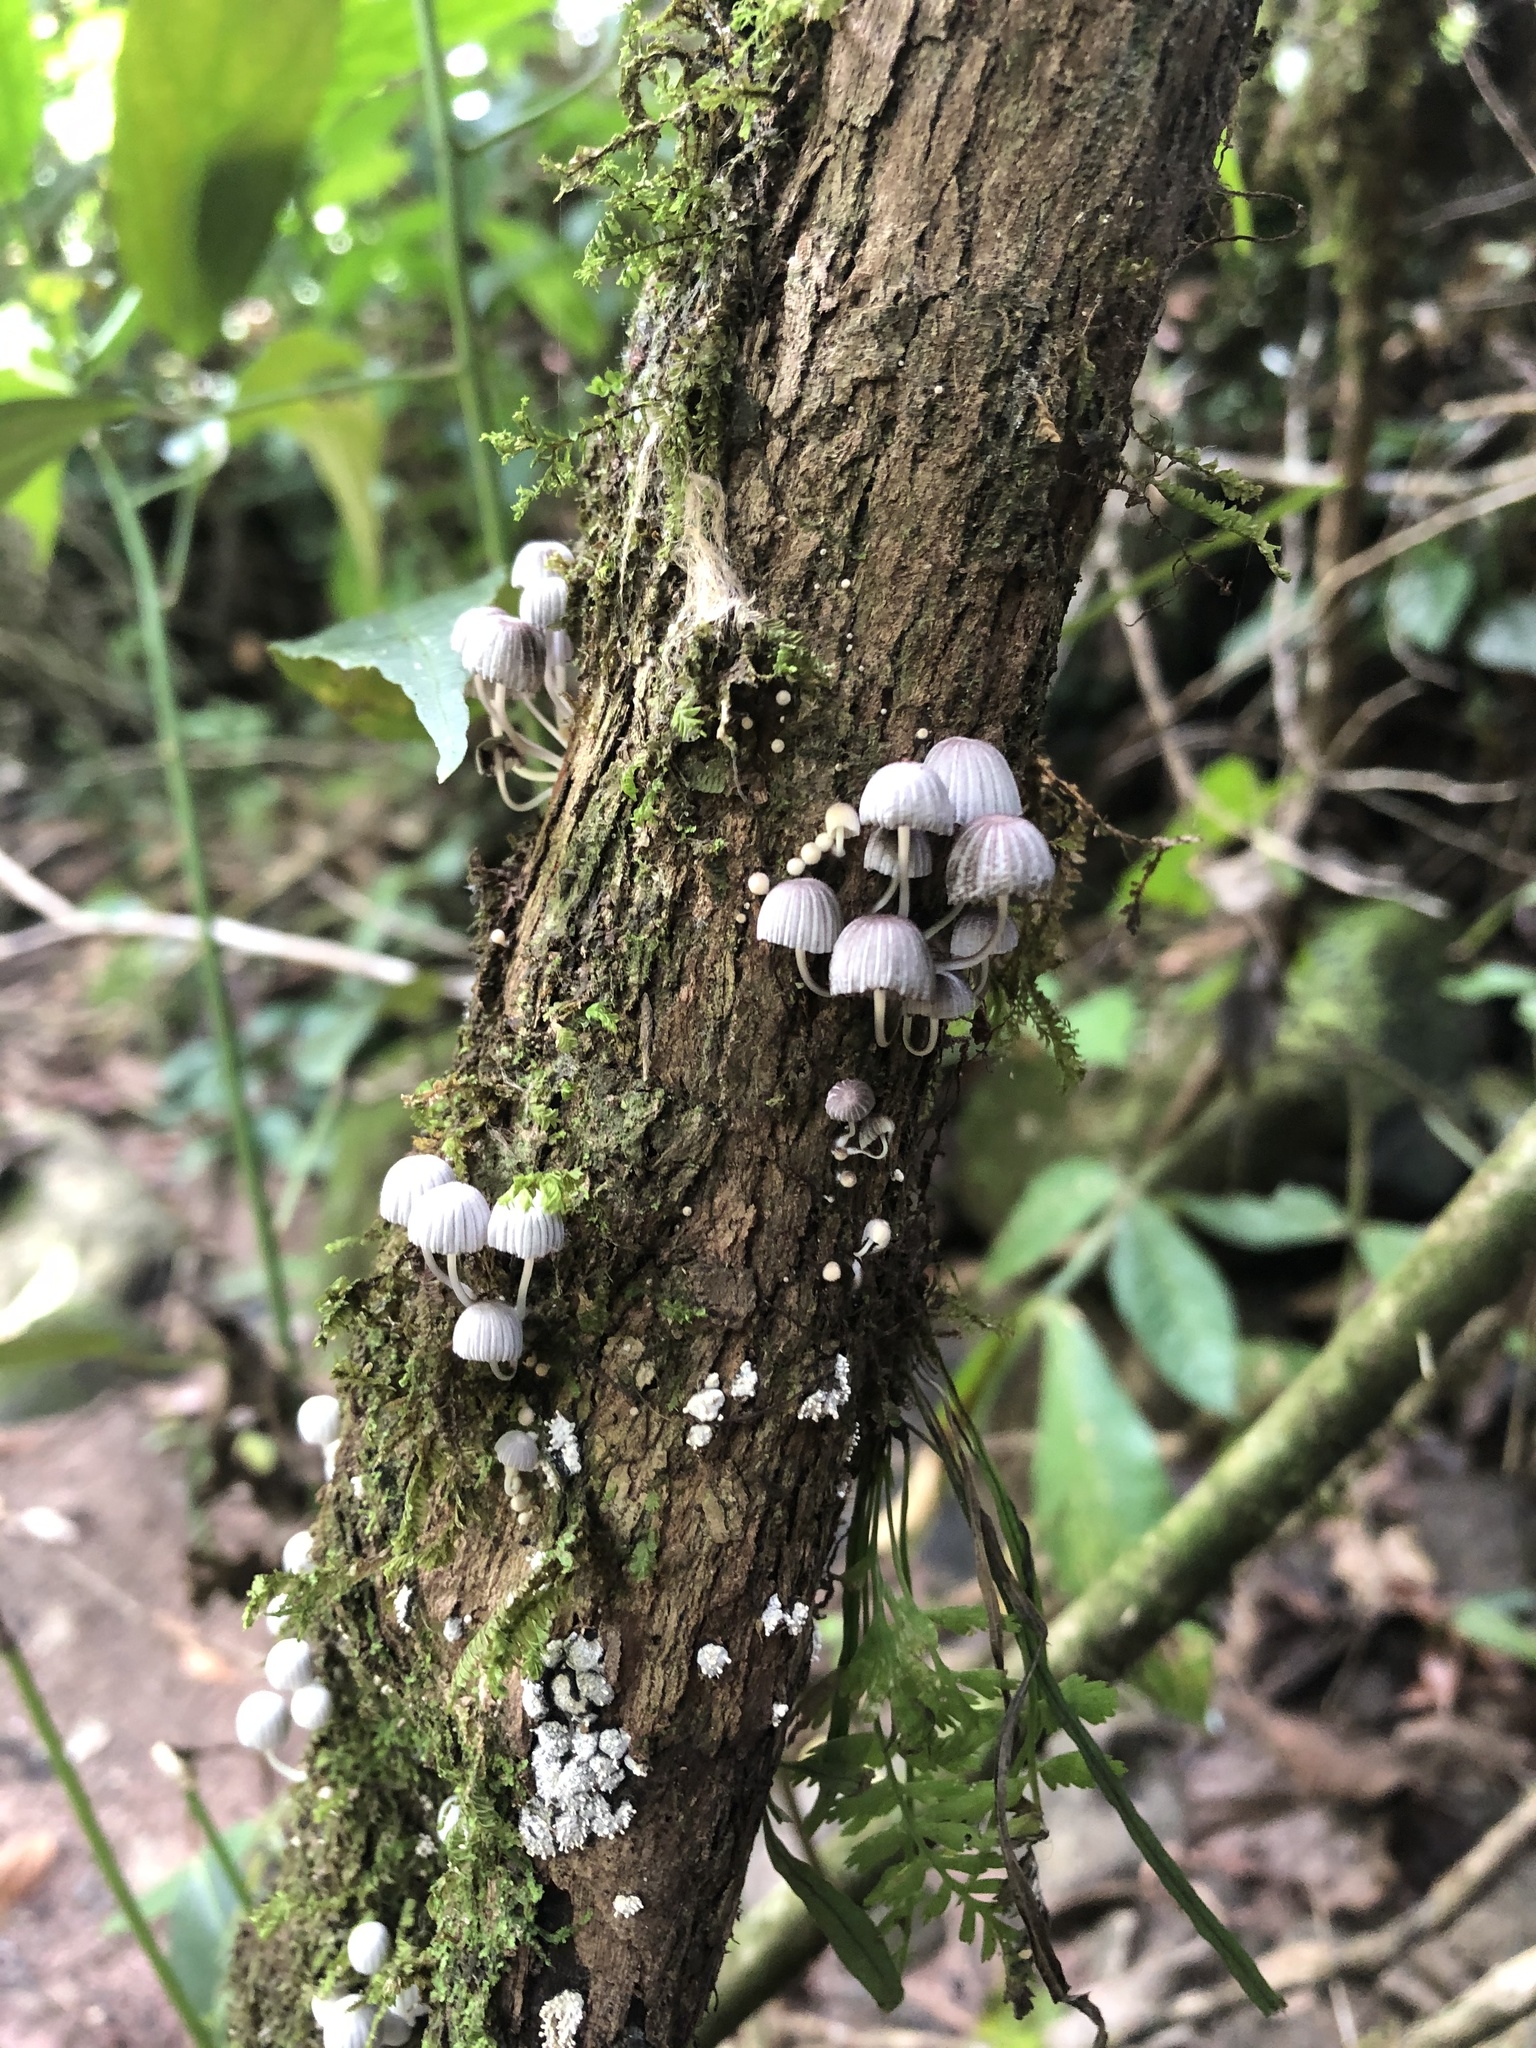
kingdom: Fungi
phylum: Basidiomycota
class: Agaricomycetes
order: Agaricales
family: Psathyrellaceae
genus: Coprinellus
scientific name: Coprinellus disseminatus
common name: Fairies' bonnets
